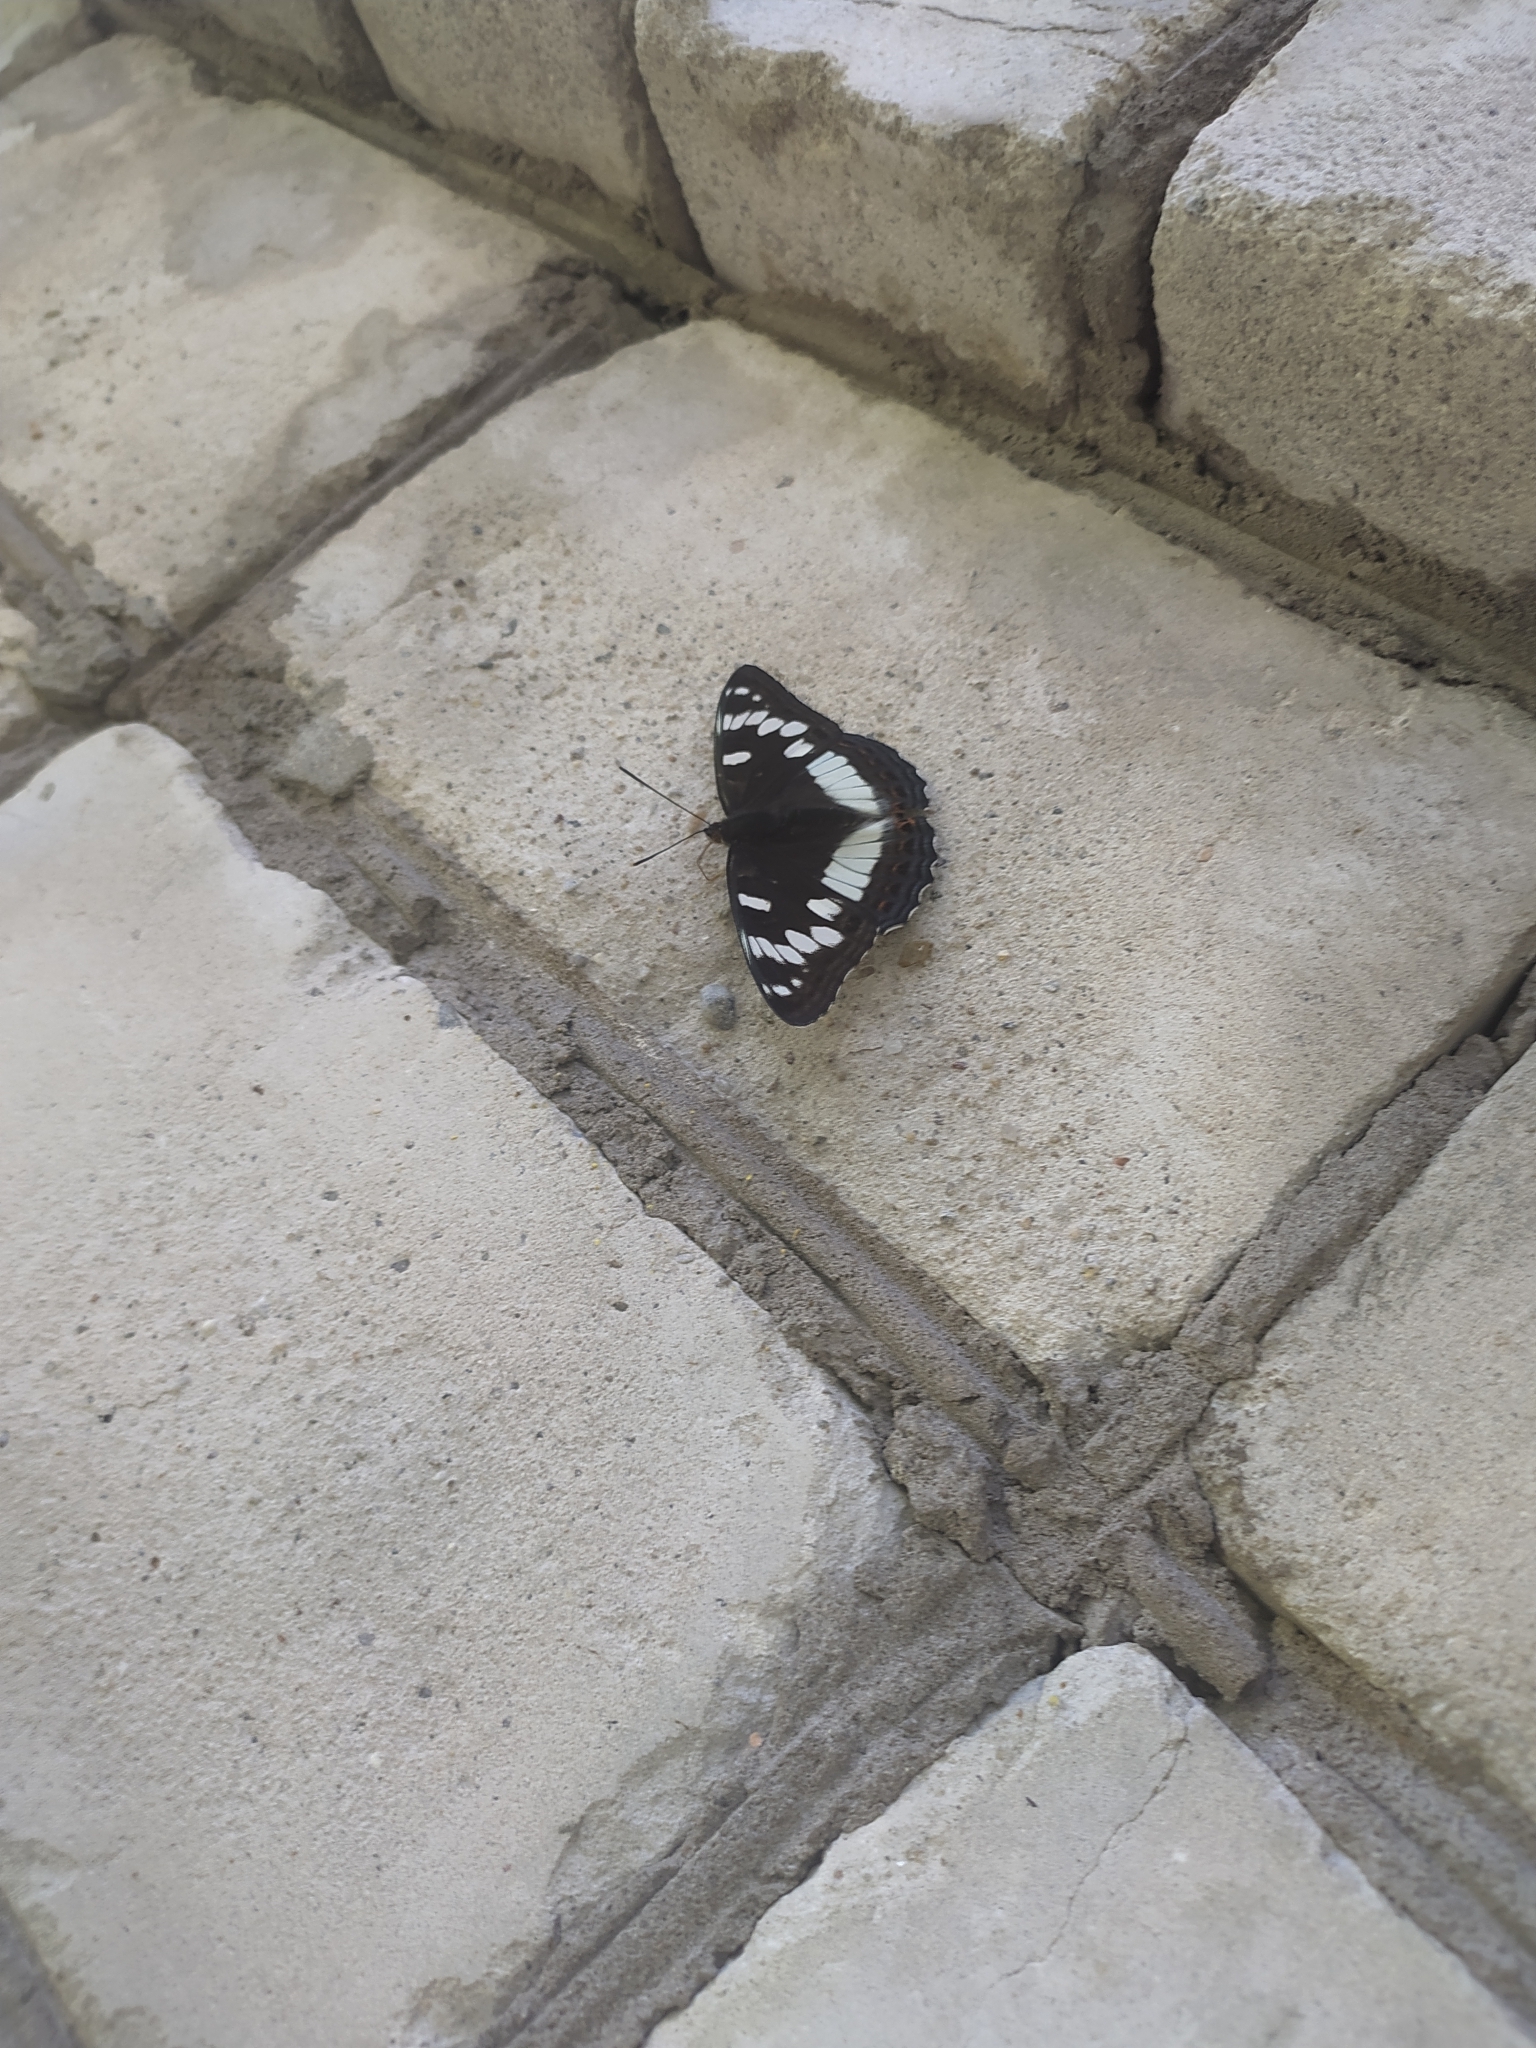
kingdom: Animalia
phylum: Arthropoda
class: Insecta
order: Lepidoptera
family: Nymphalidae
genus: Limenitis
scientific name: Limenitis populi
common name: Poplar admiral
